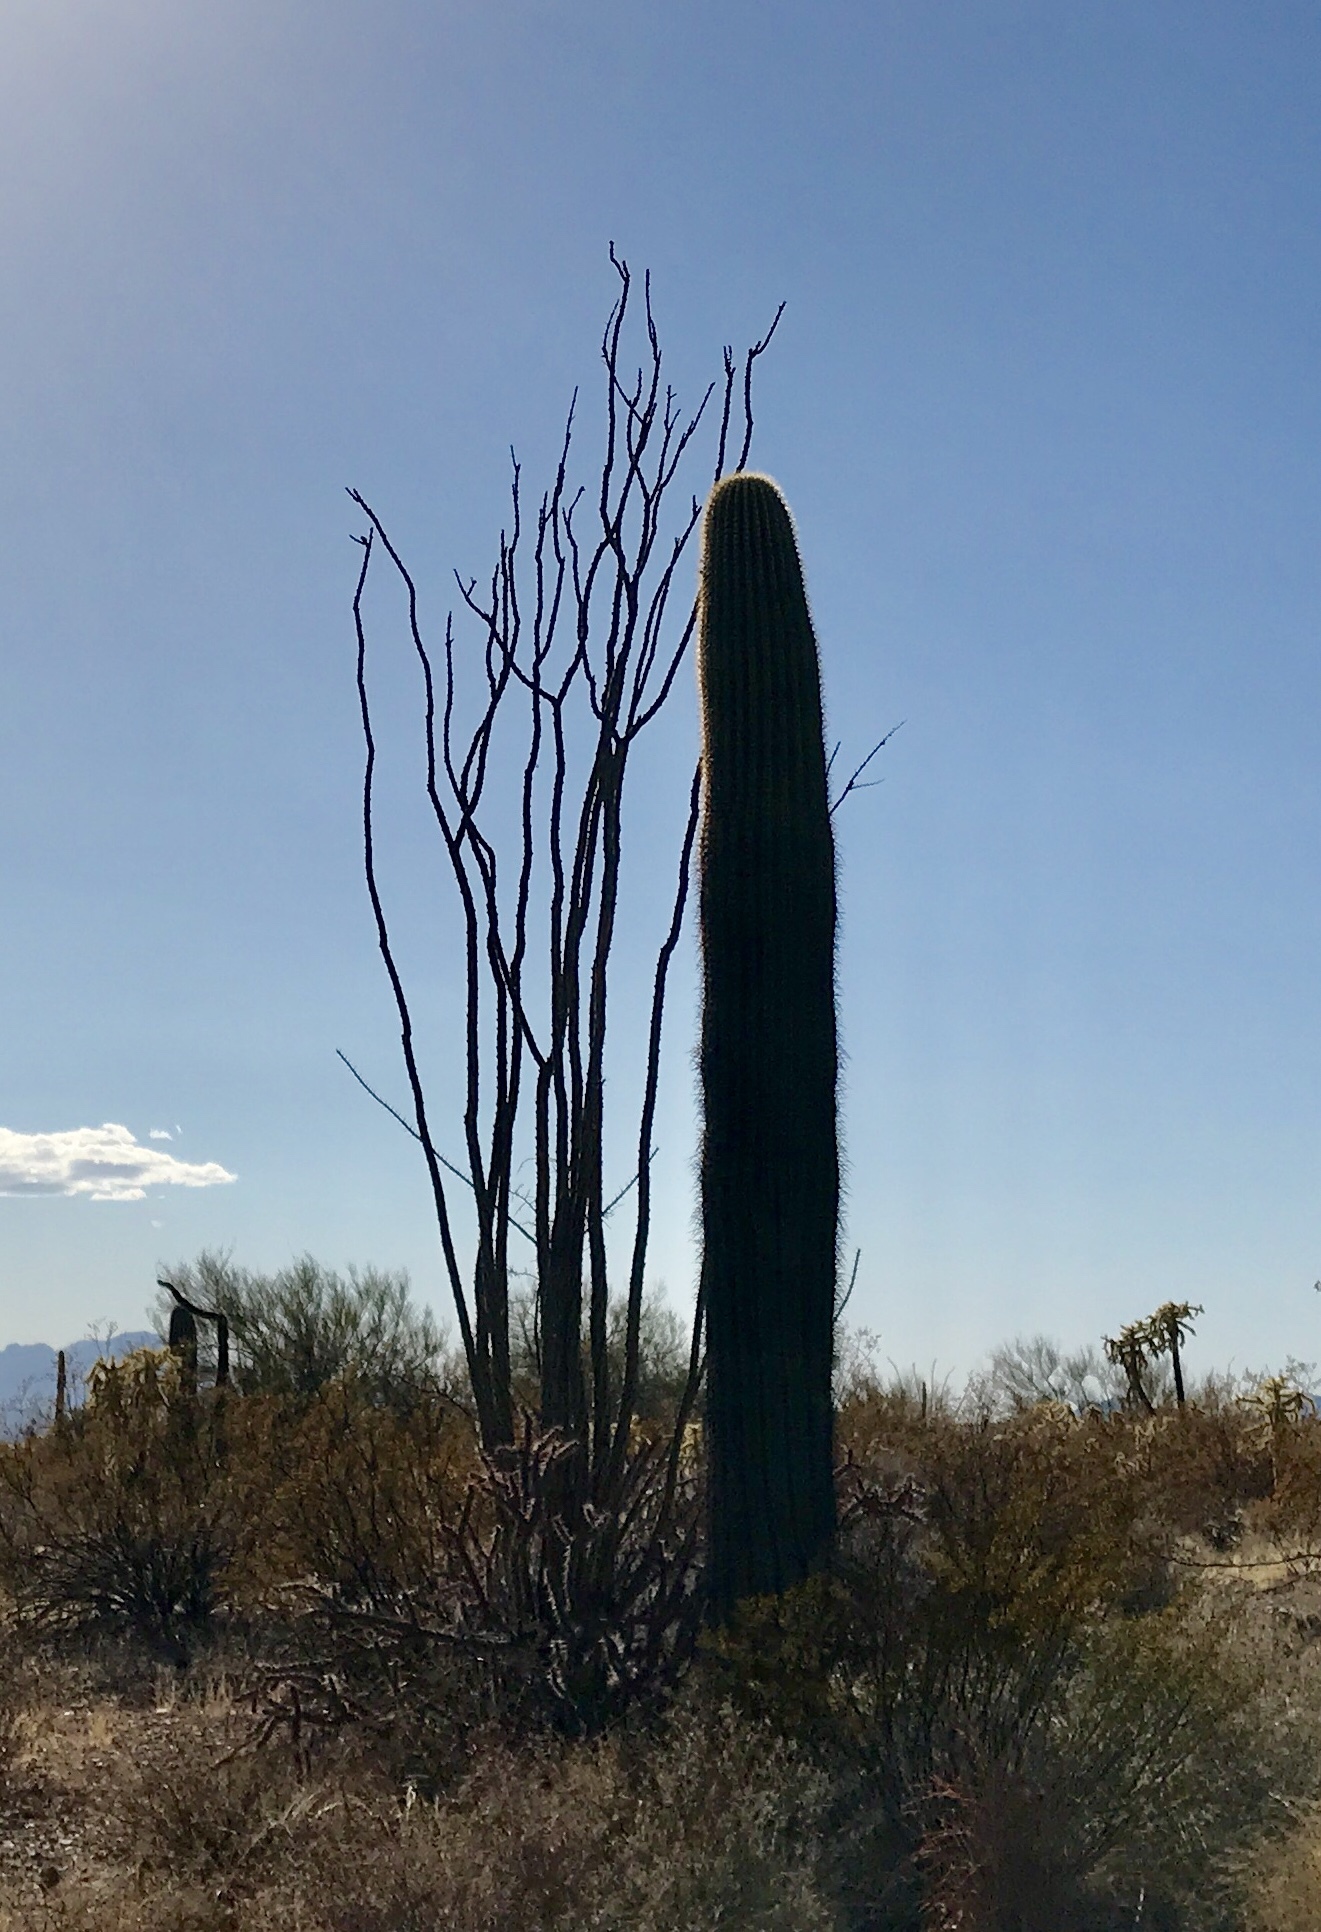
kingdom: Plantae
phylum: Tracheophyta
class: Magnoliopsida
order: Ericales
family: Fouquieriaceae
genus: Fouquieria
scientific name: Fouquieria splendens
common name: Vine-cactus
